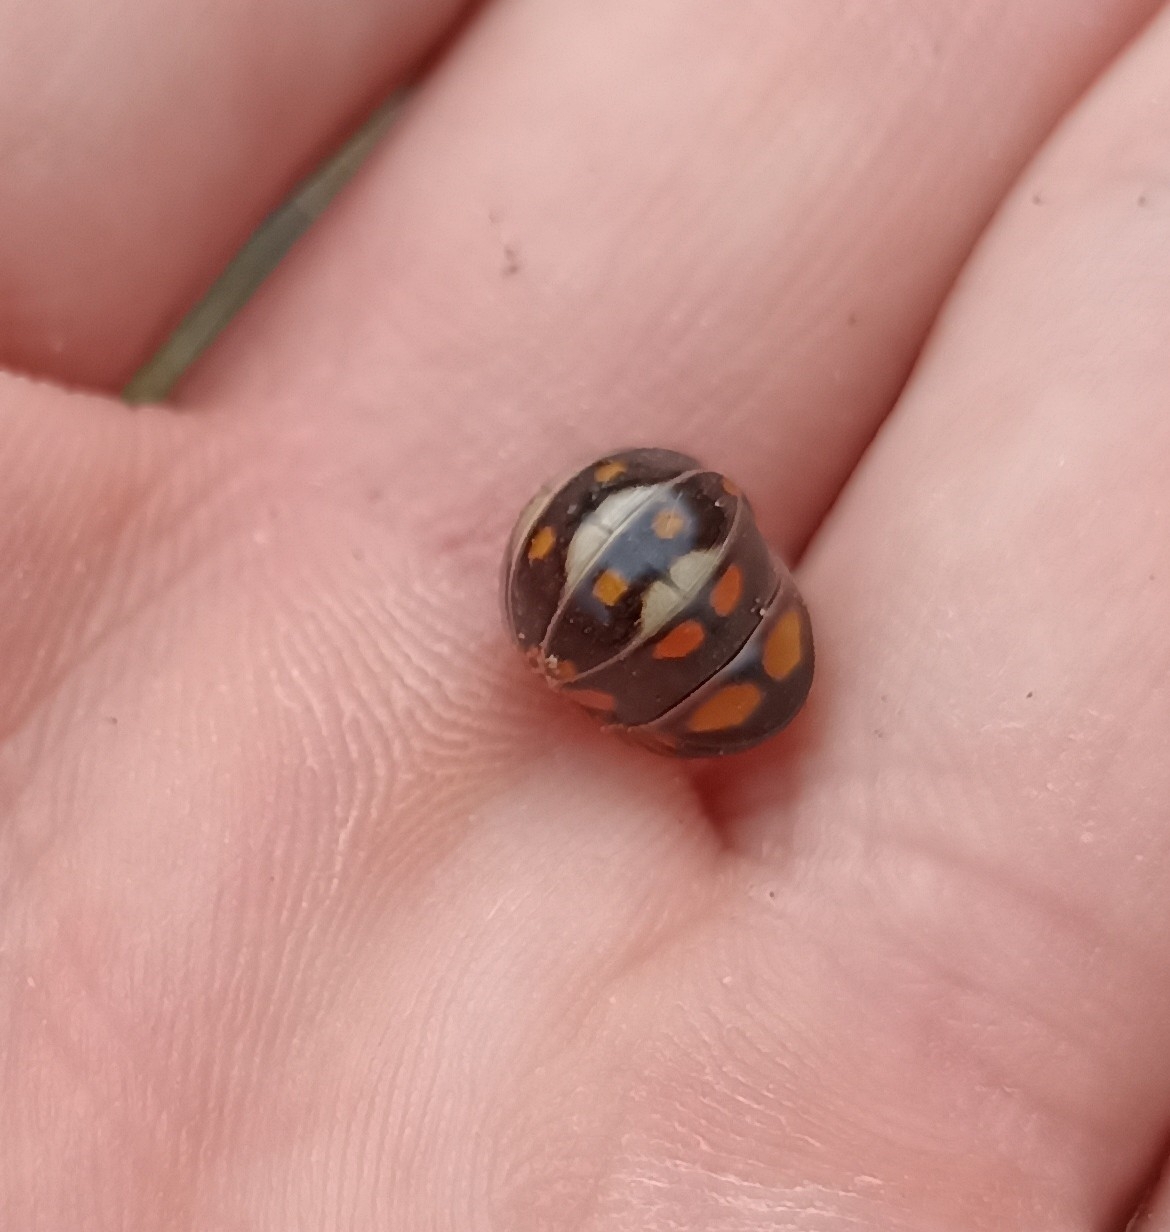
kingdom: Animalia
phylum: Arthropoda
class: Diplopoda
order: Glomerida
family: Glomeridae
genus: Glomeris
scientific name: Glomeris guttata
